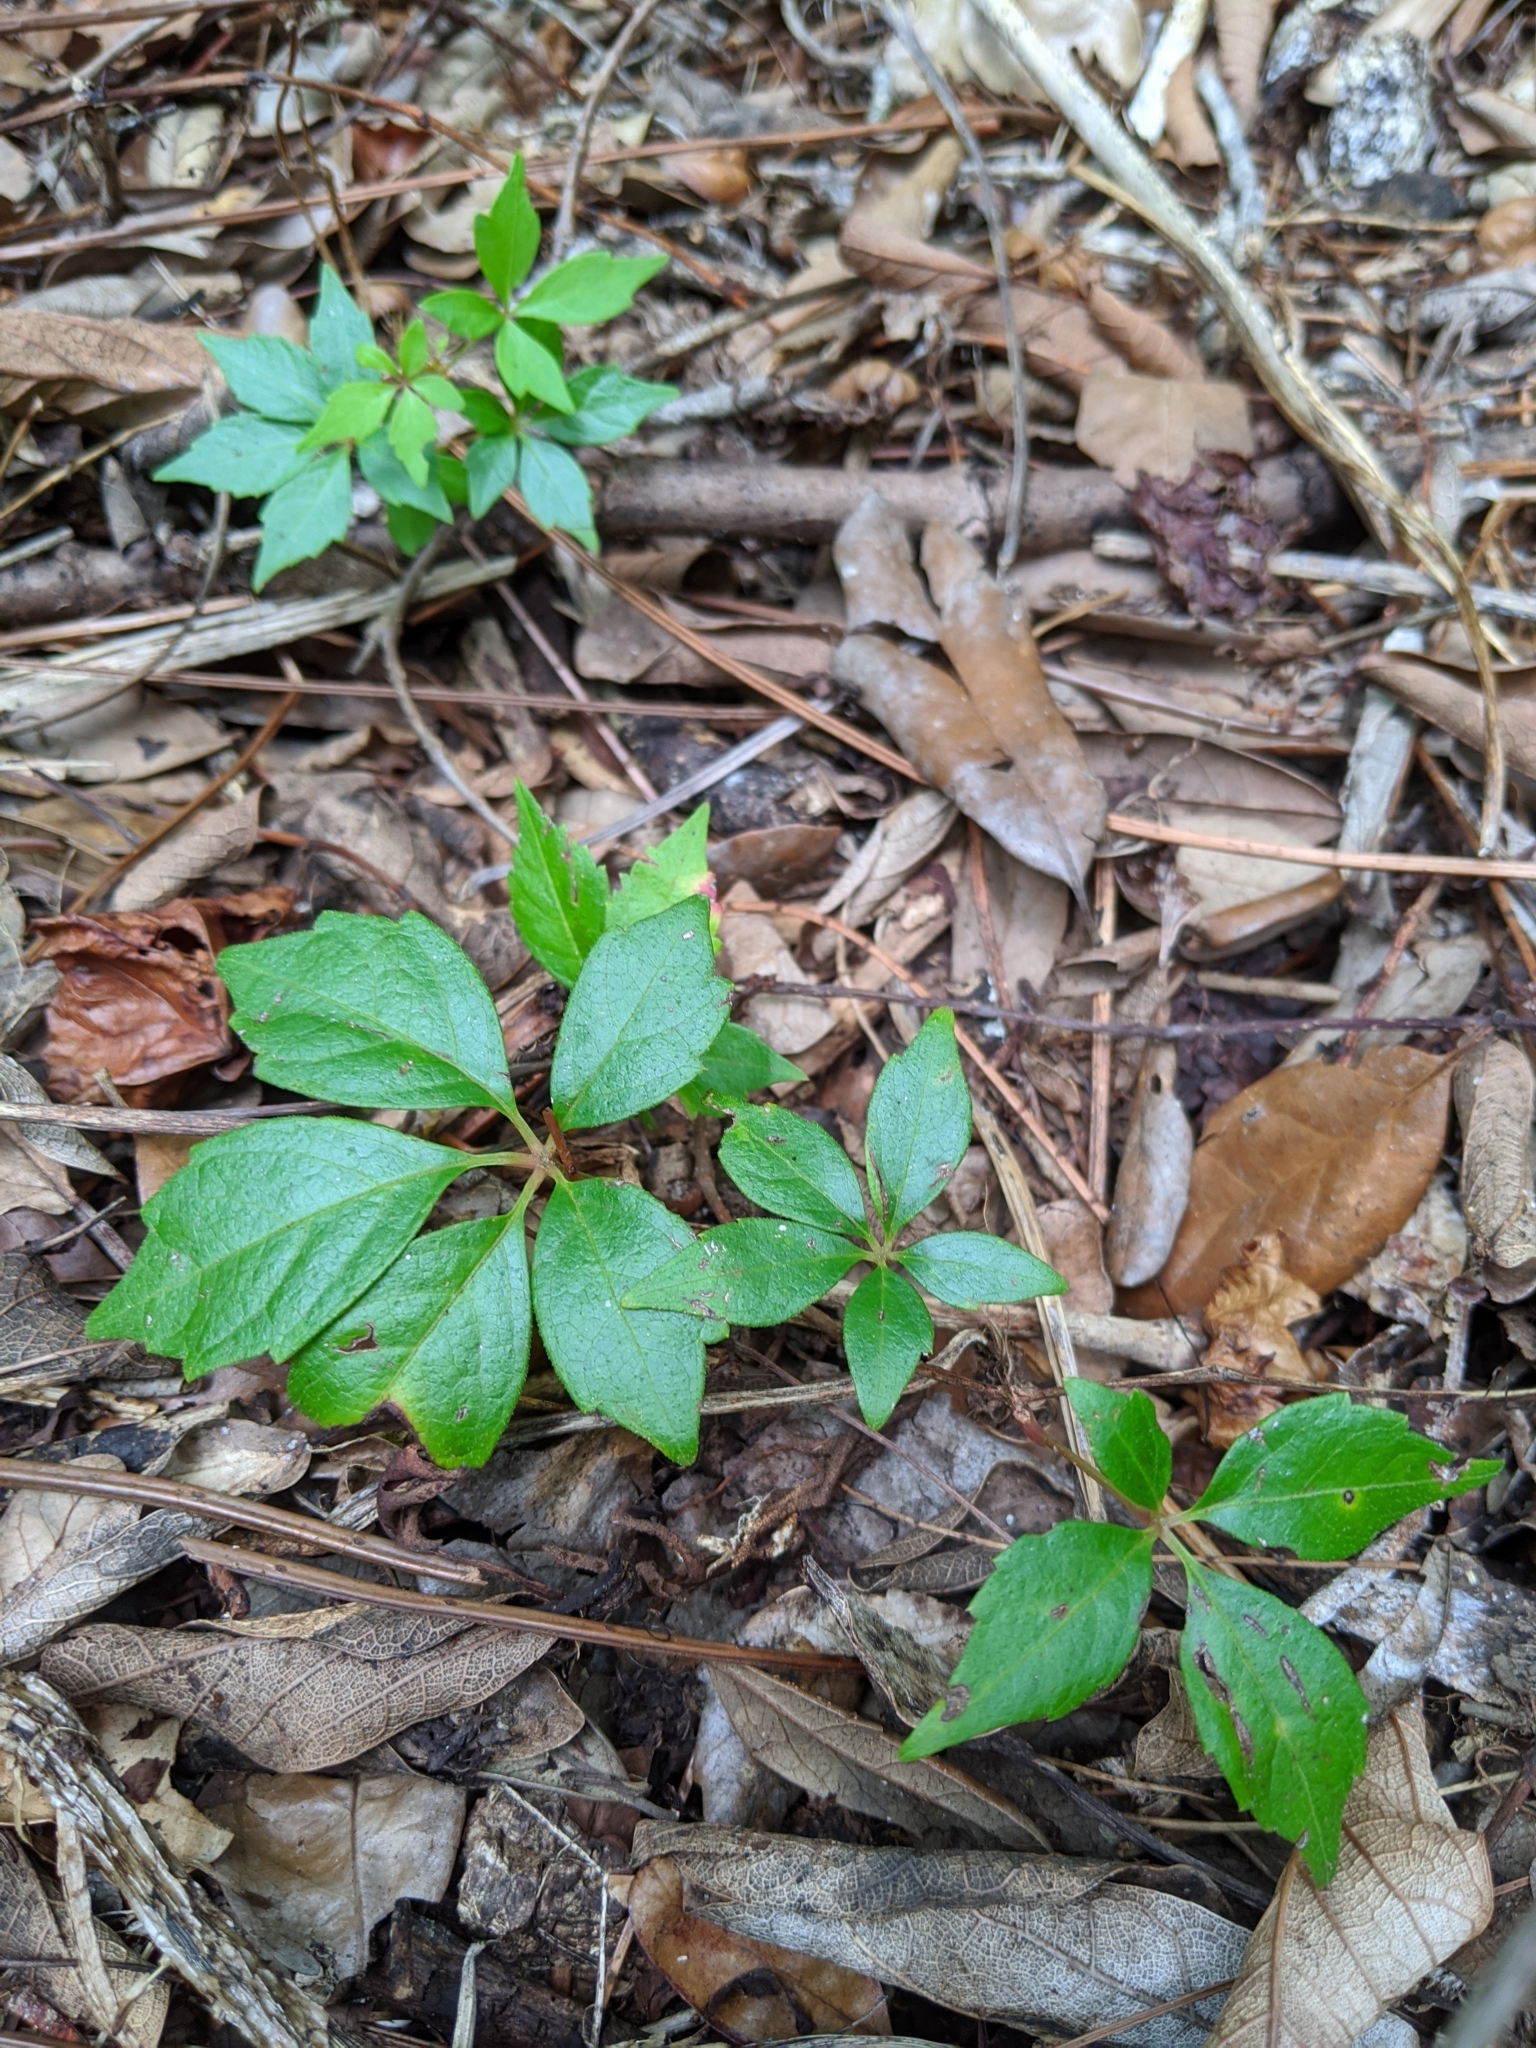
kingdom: Plantae
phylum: Tracheophyta
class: Magnoliopsida
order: Vitales
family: Vitaceae
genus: Parthenocissus
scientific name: Parthenocissus quinquefolia
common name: Virginia-creeper
